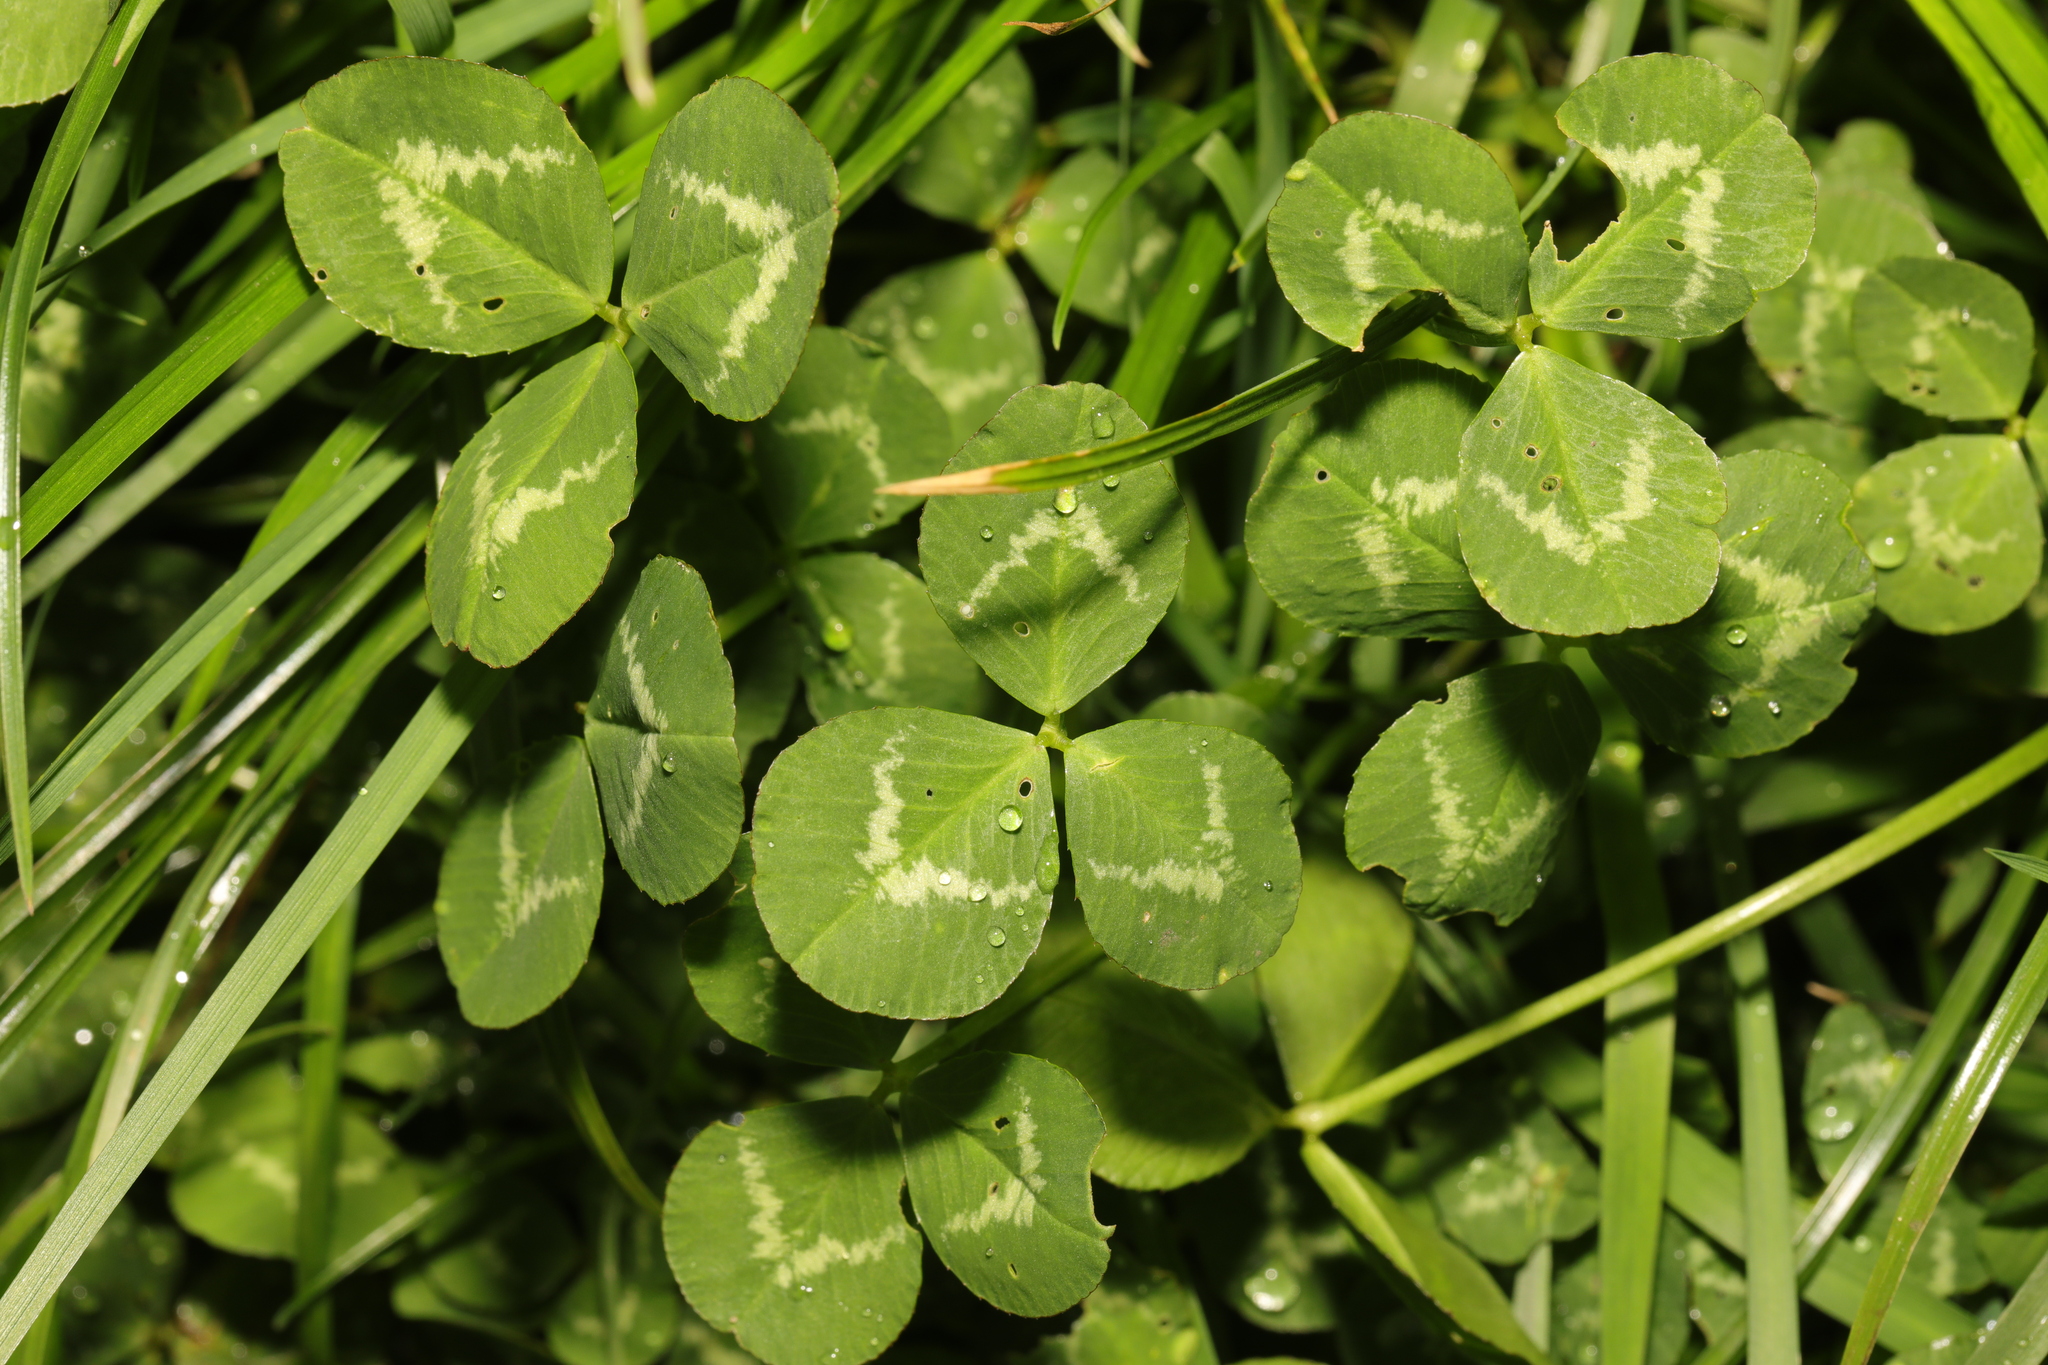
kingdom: Plantae
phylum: Tracheophyta
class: Magnoliopsida
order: Fabales
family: Fabaceae
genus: Trifolium
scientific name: Trifolium repens
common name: White clover
